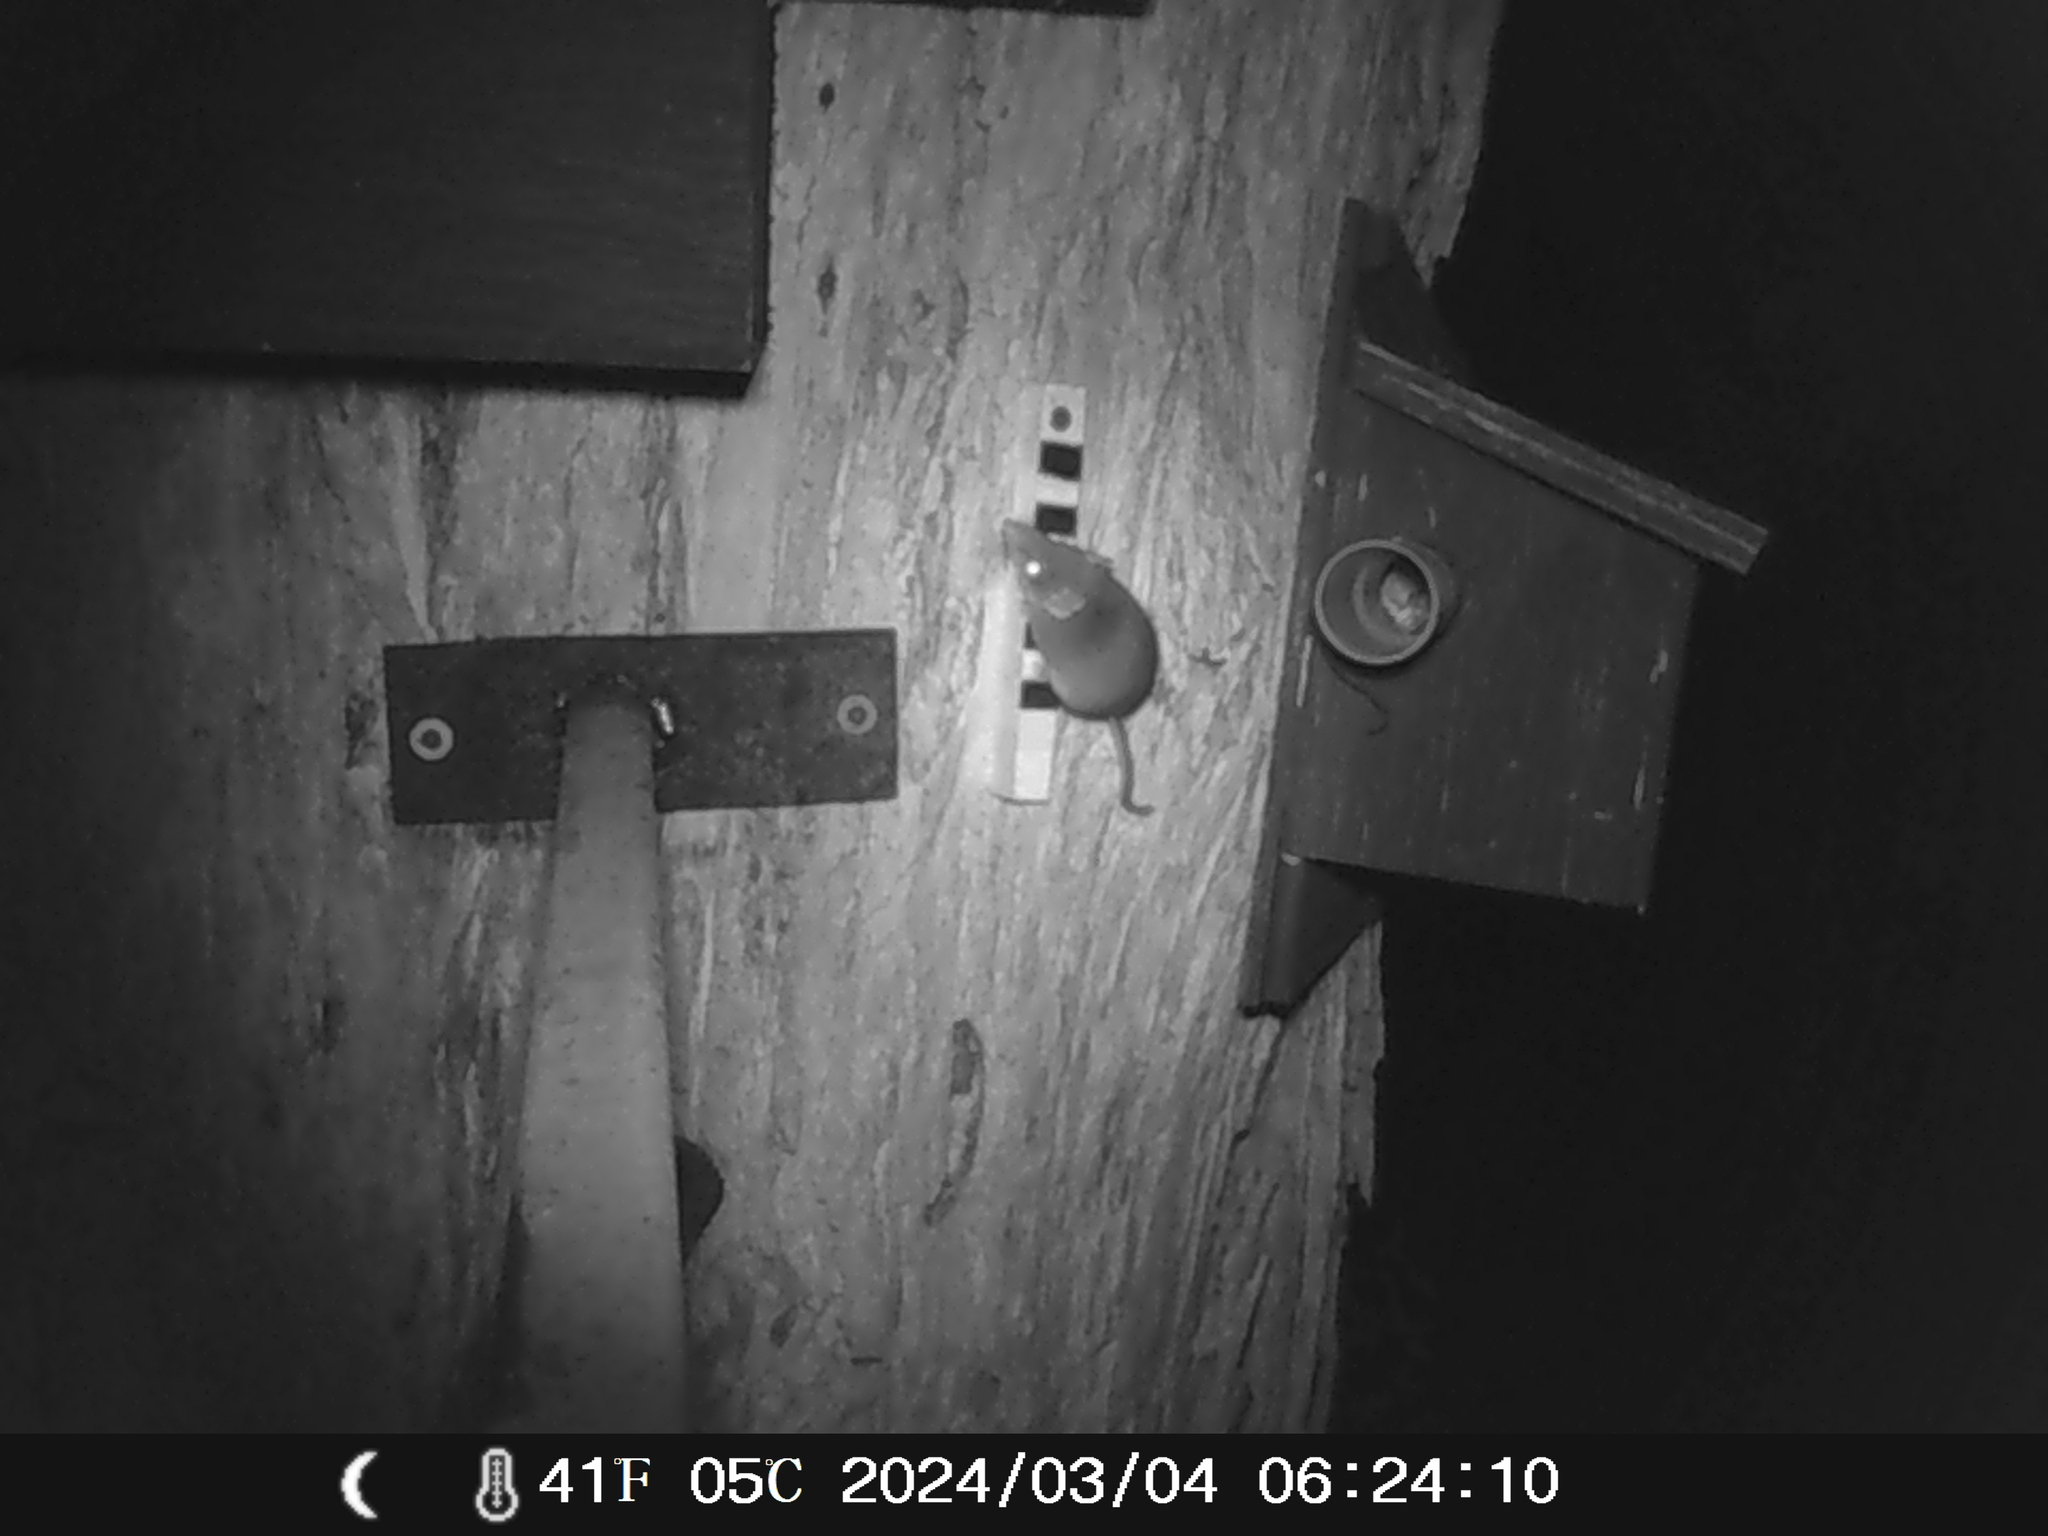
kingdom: Animalia
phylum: Chordata
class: Mammalia
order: Dasyuromorphia
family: Dasyuridae
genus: Antechinus
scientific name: Antechinus agilis
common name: Agile antechinus
